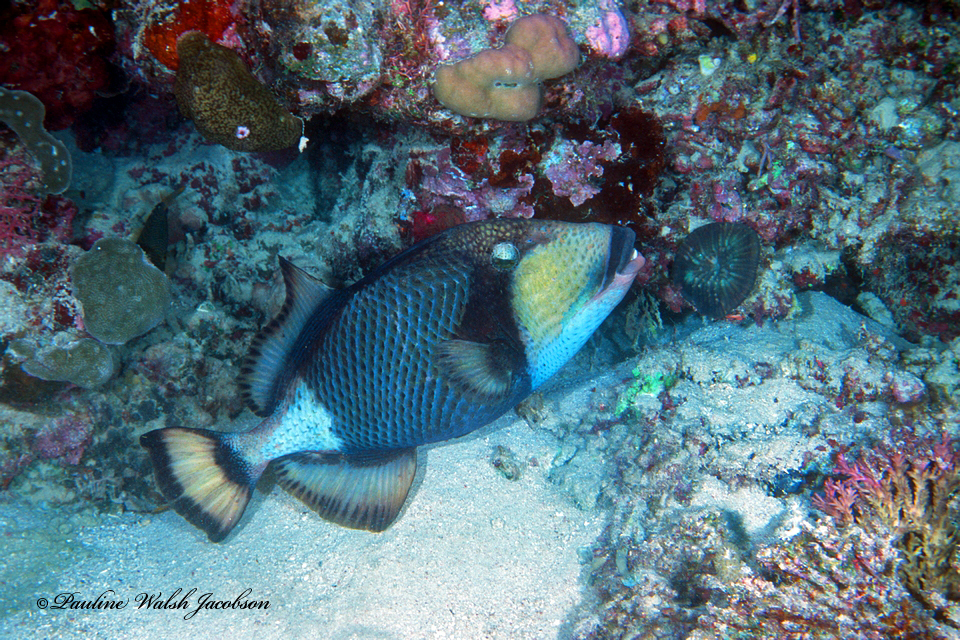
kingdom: Animalia
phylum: Chordata
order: Tetraodontiformes
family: Balistidae
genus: Balistoides
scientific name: Balistoides viridescens
